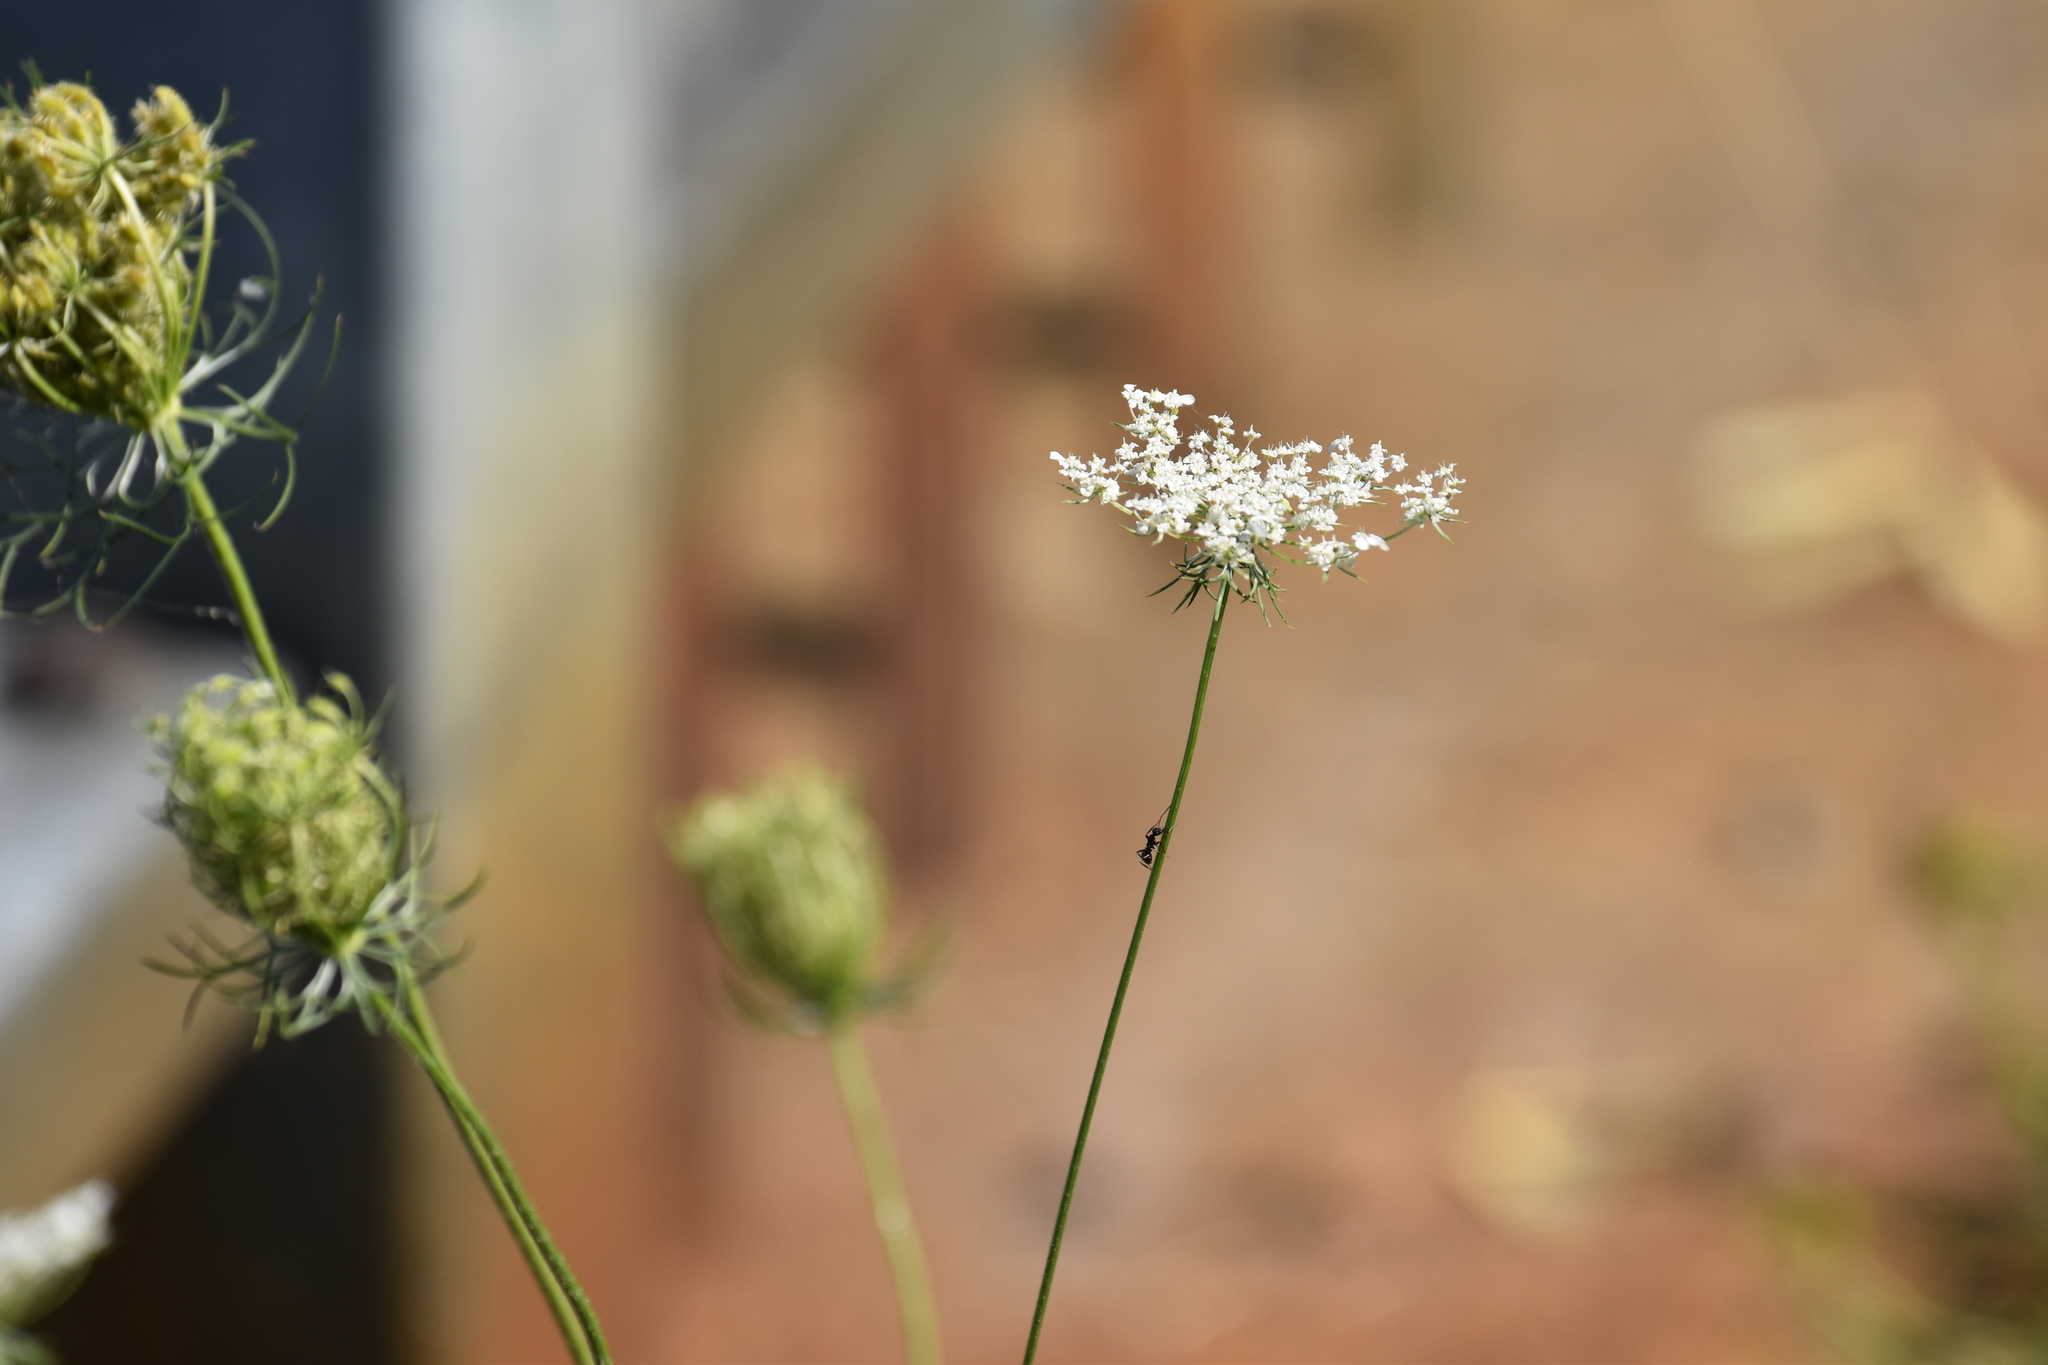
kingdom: Plantae
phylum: Tracheophyta
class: Magnoliopsida
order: Apiales
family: Apiaceae
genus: Daucus
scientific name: Daucus carota
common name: Wild carrot
